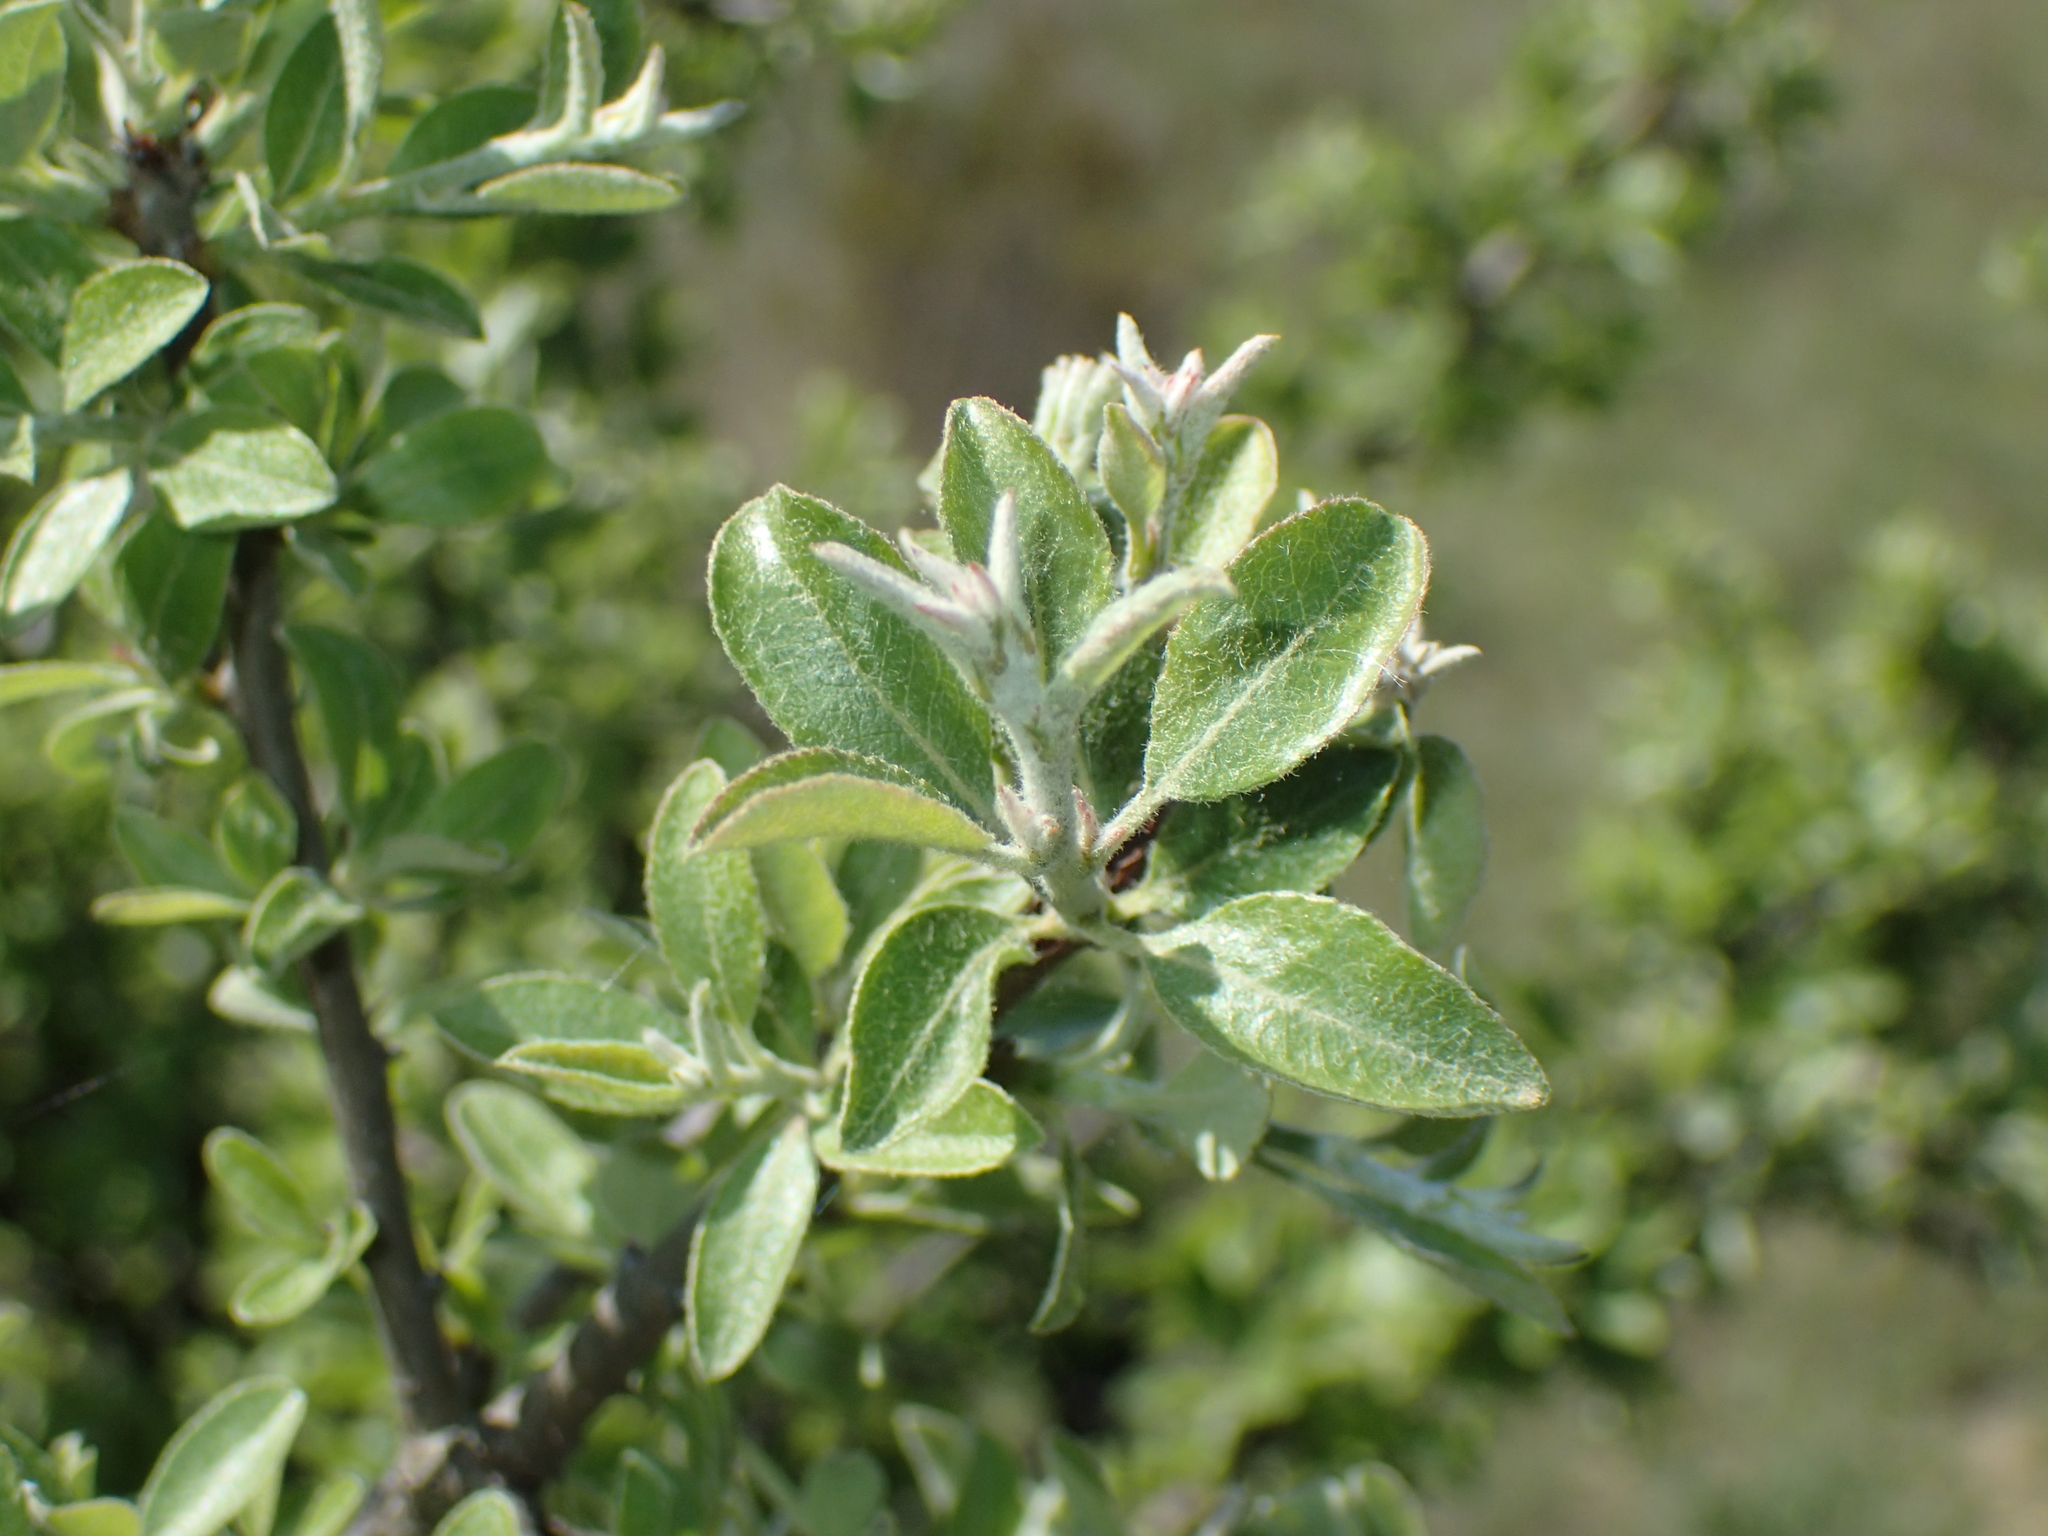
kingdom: Plantae
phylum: Tracheophyta
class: Magnoliopsida
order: Rosales
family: Rosaceae
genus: Pyrus
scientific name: Pyrus spinosa
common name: Almond-leaf pear
